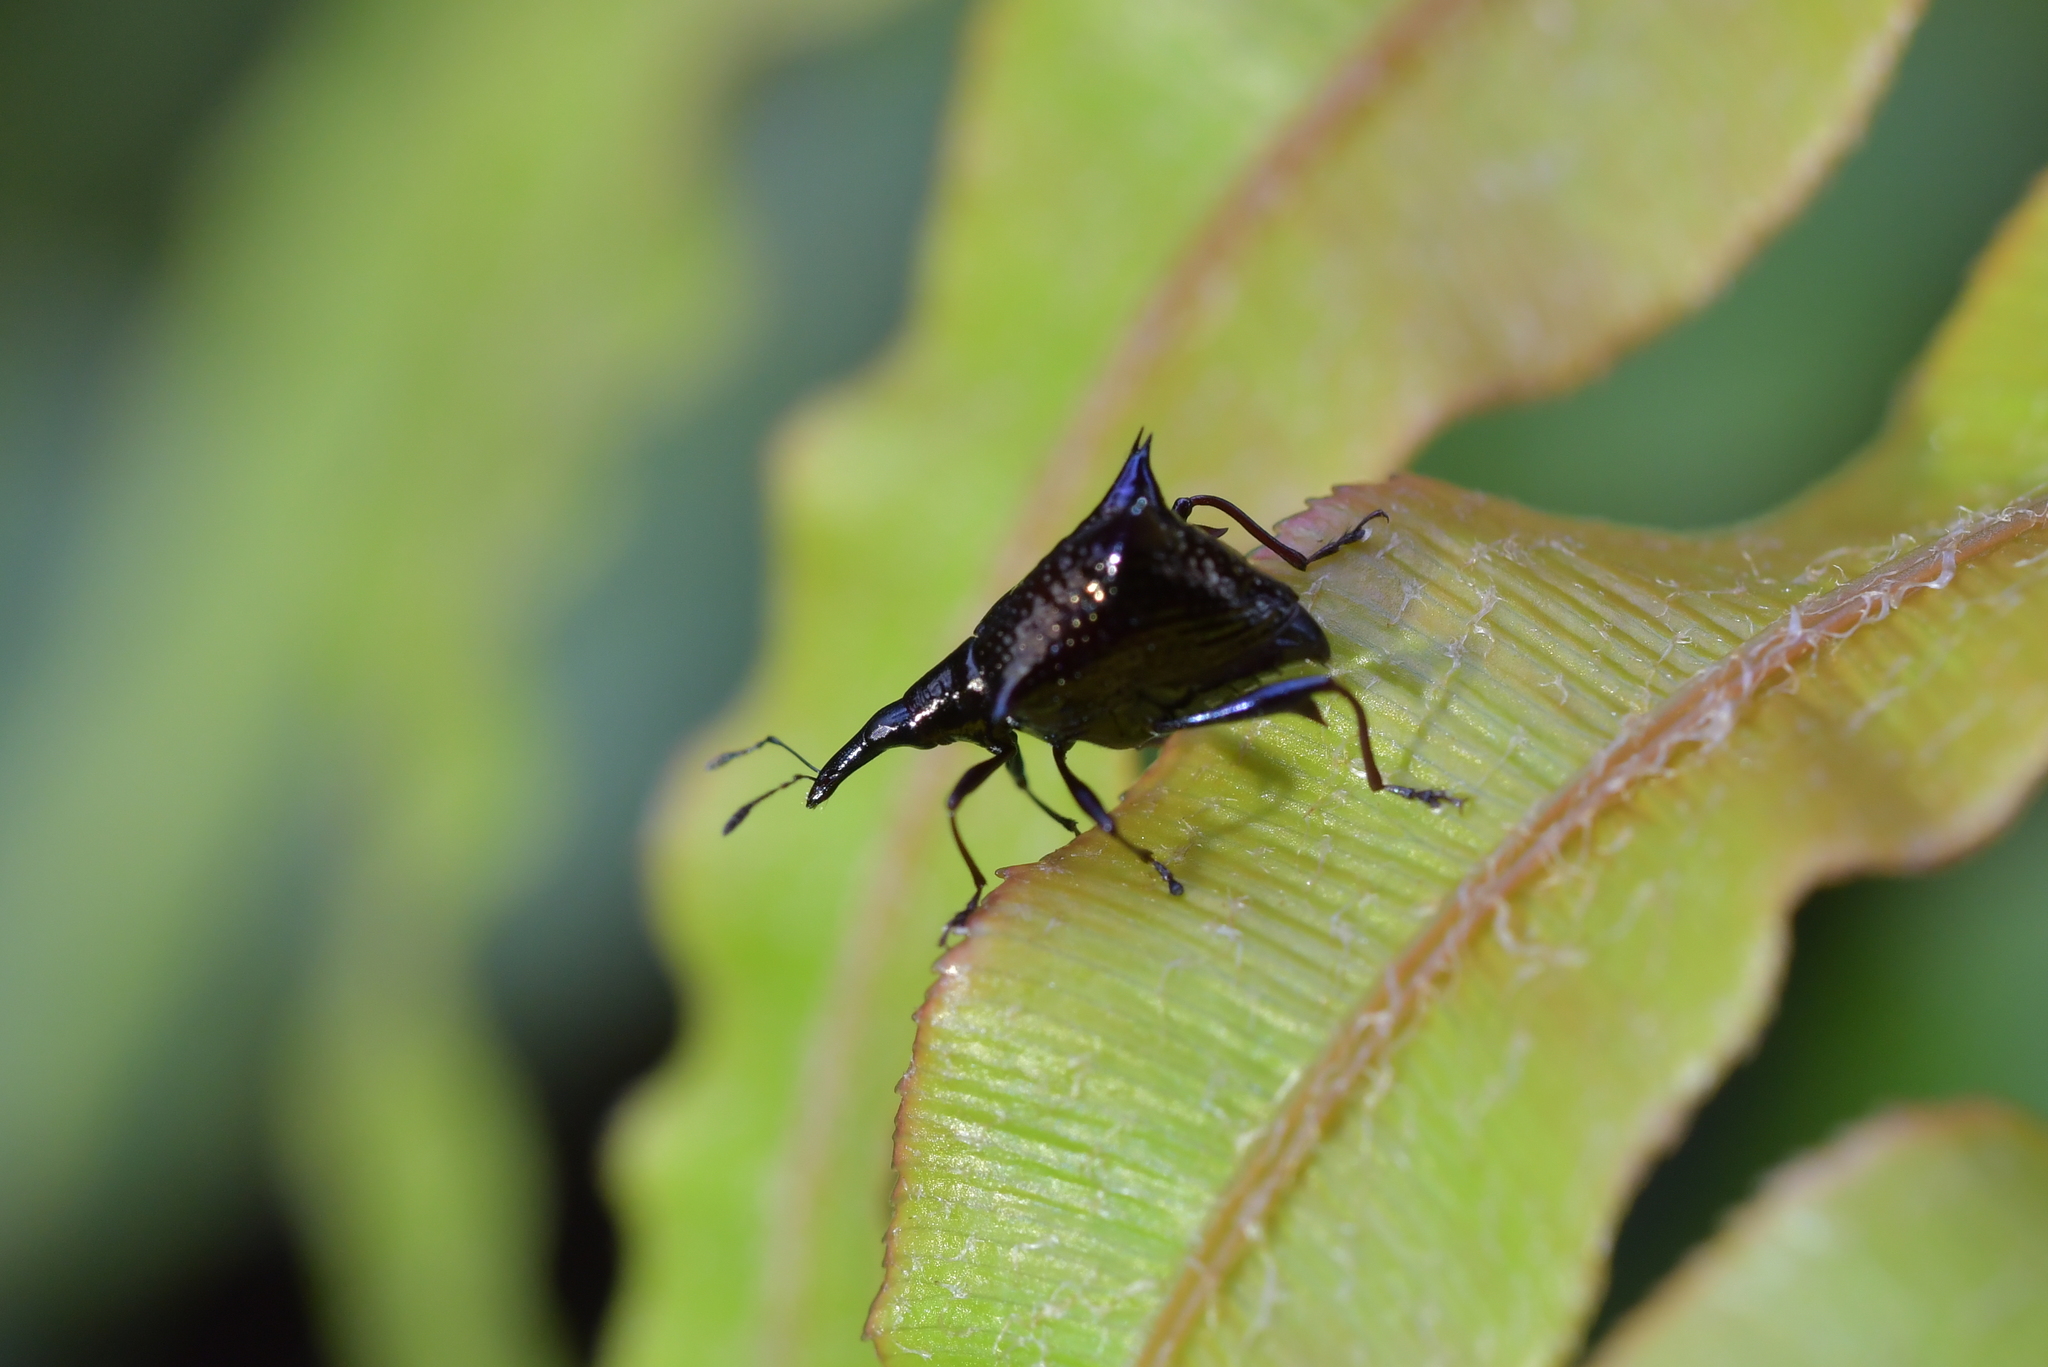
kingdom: Animalia
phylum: Arthropoda
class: Insecta
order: Coleoptera
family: Curculionidae
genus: Scolopterus
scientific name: Scolopterus aequus
